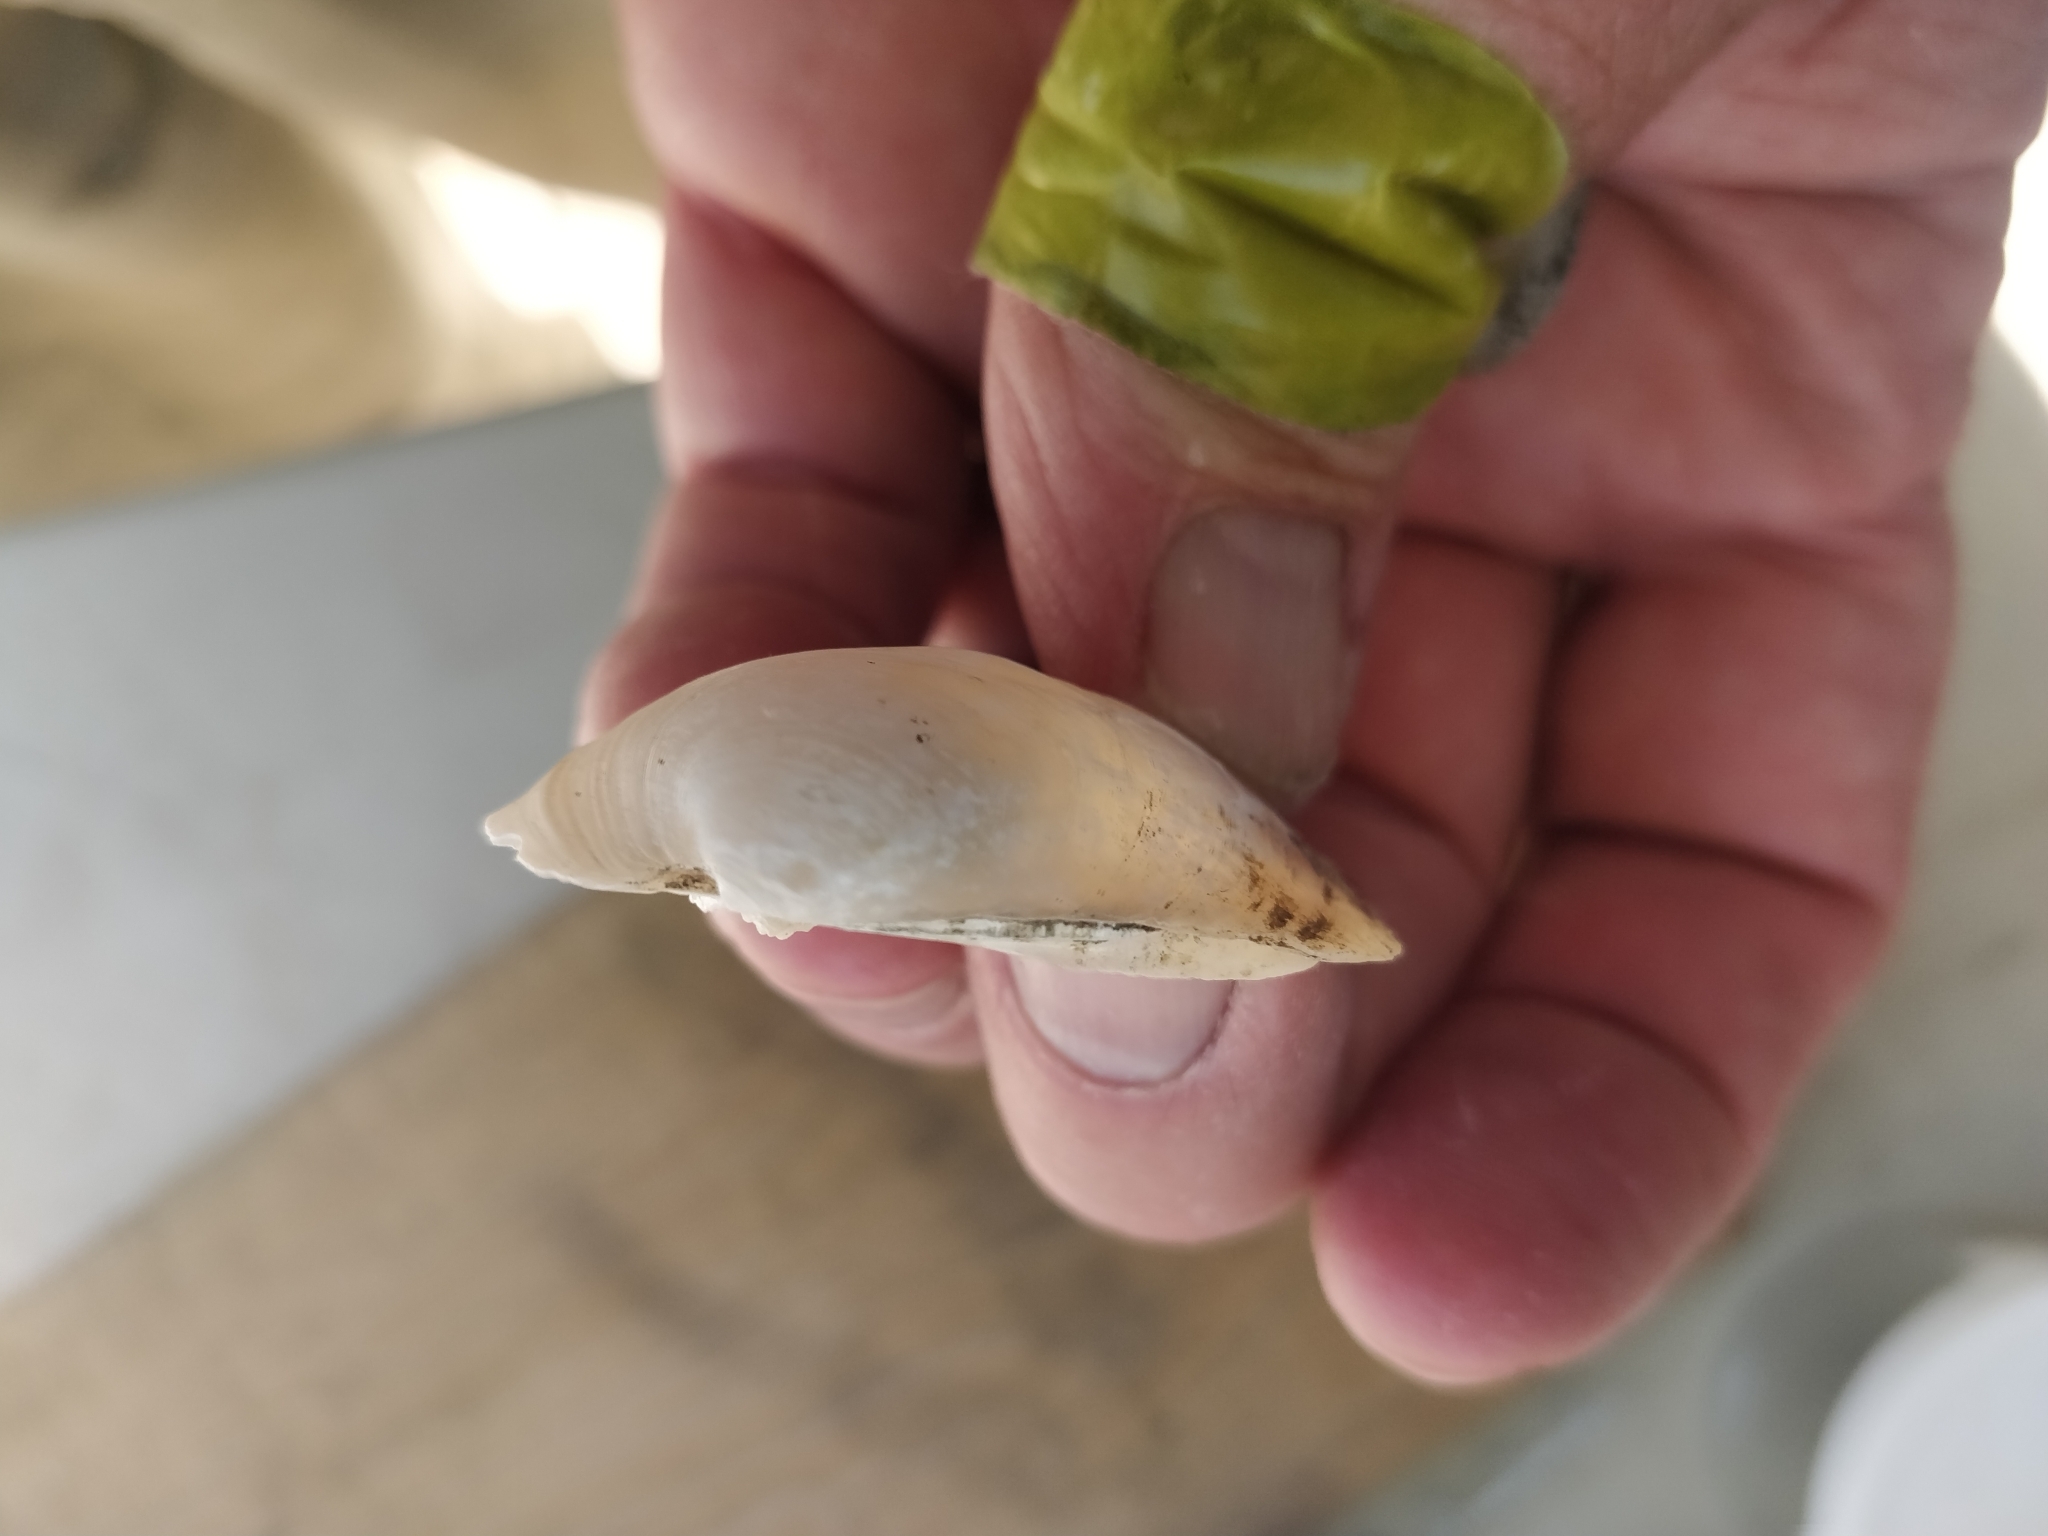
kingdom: Animalia
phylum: Mollusca
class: Bivalvia
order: Unionida
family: Unionidae
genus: Amblema
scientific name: Amblema plicata
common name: Threeridge
